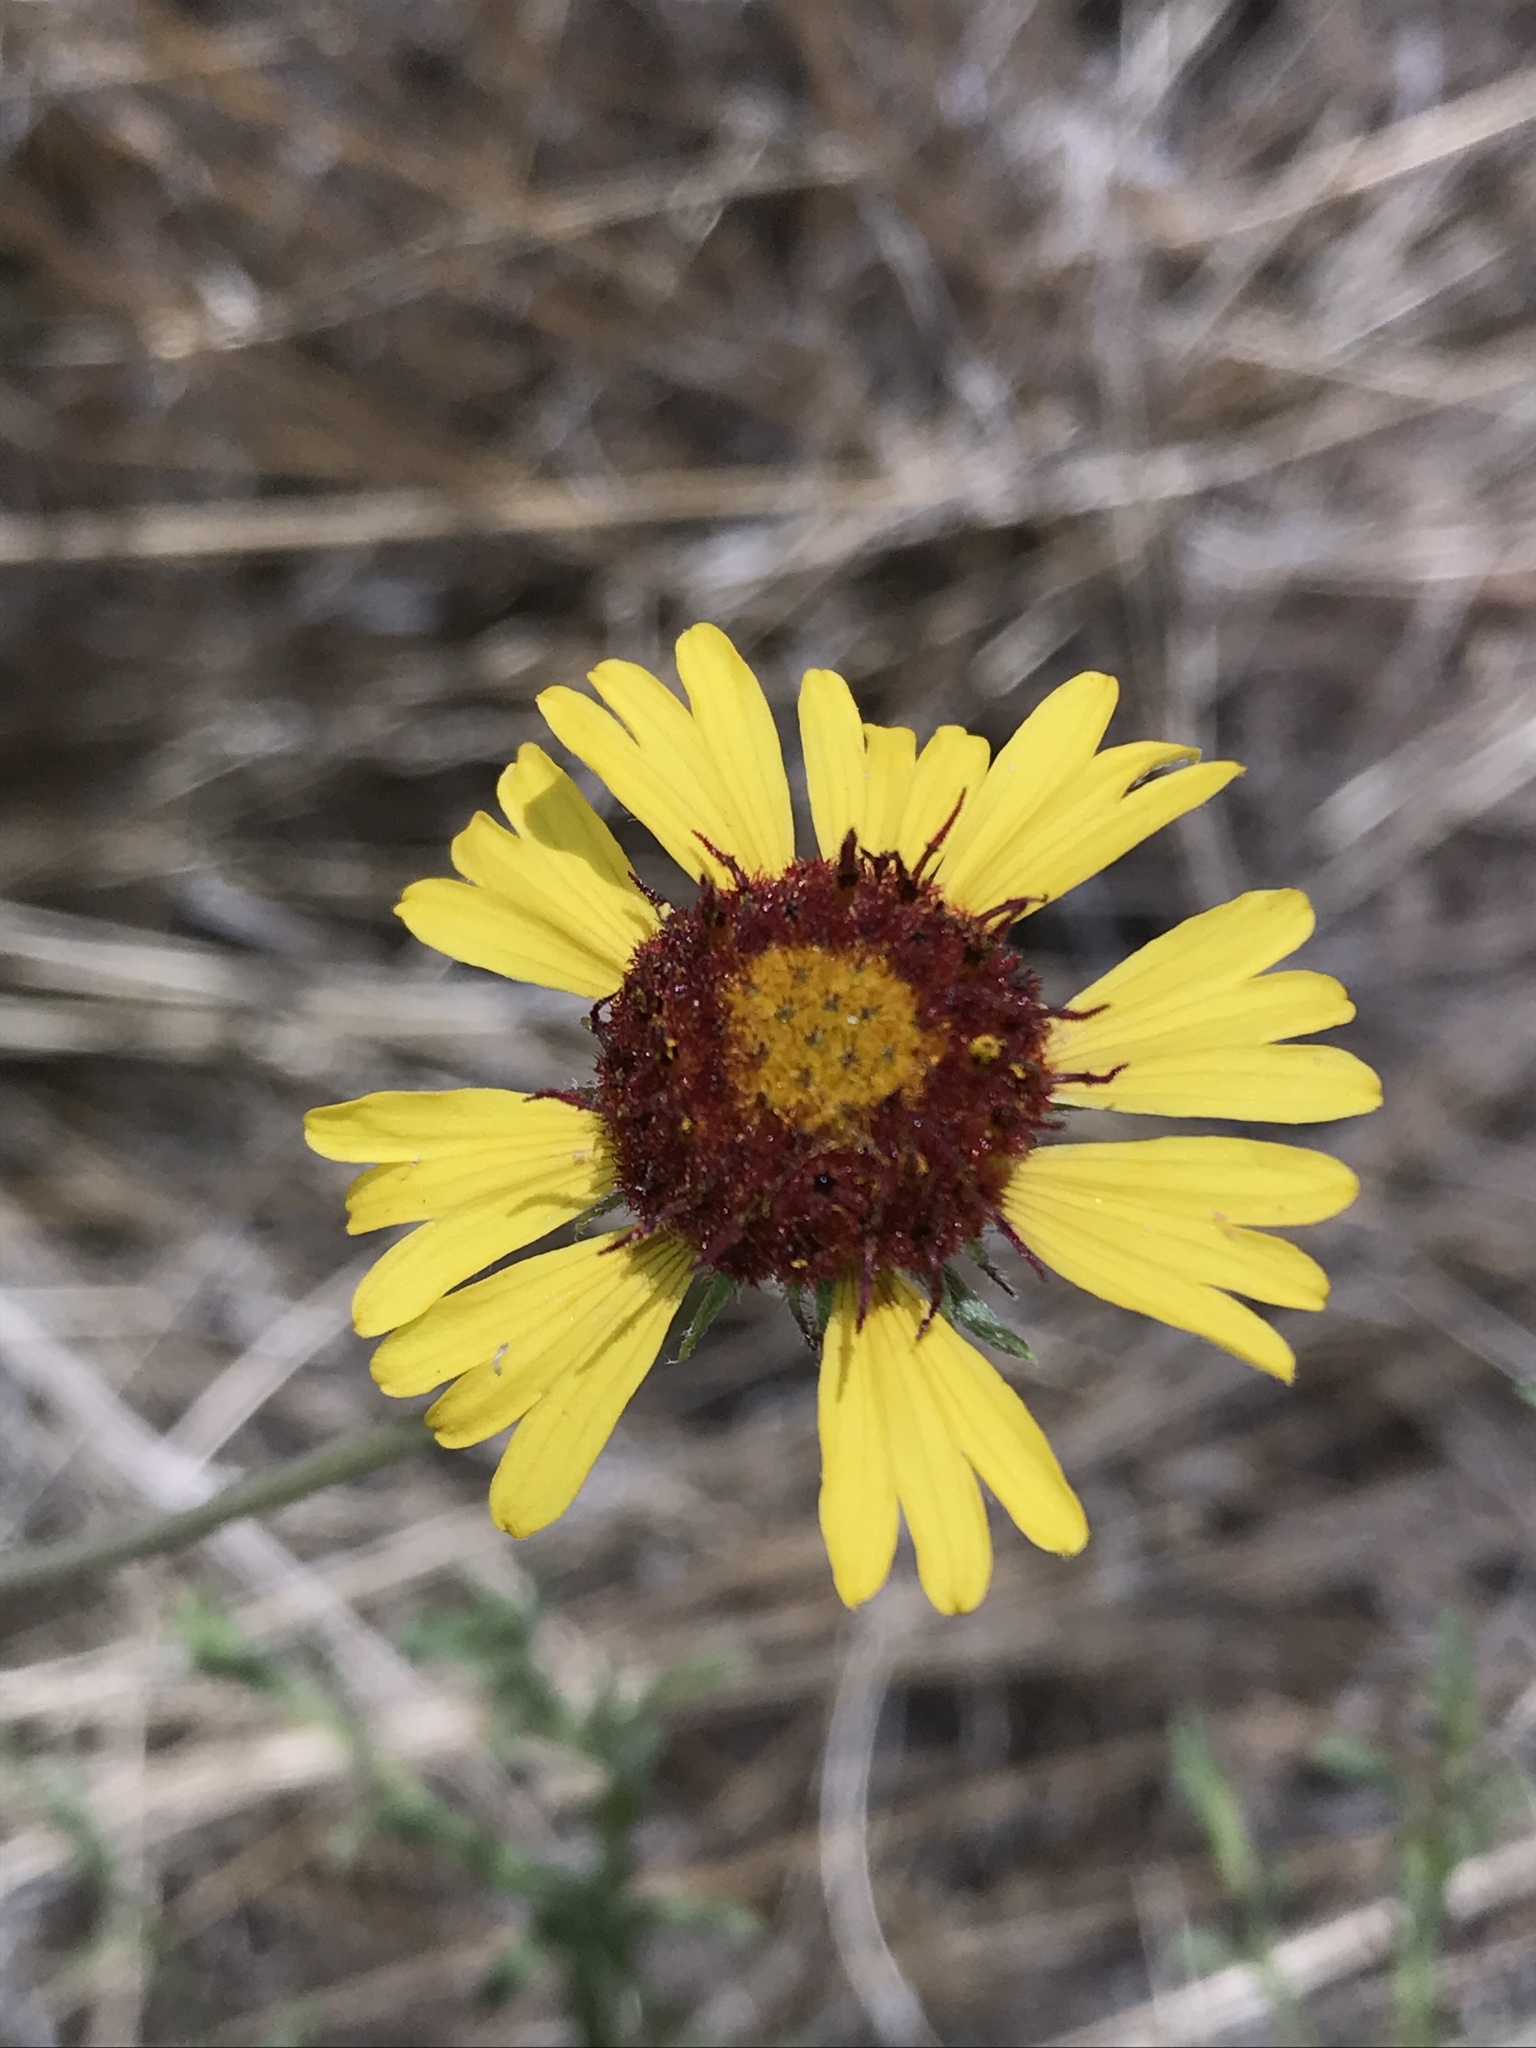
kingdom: Plantae
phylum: Tracheophyta
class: Magnoliopsida
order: Asterales
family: Asteraceae
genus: Gaillardia
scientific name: Gaillardia pinnatifida
